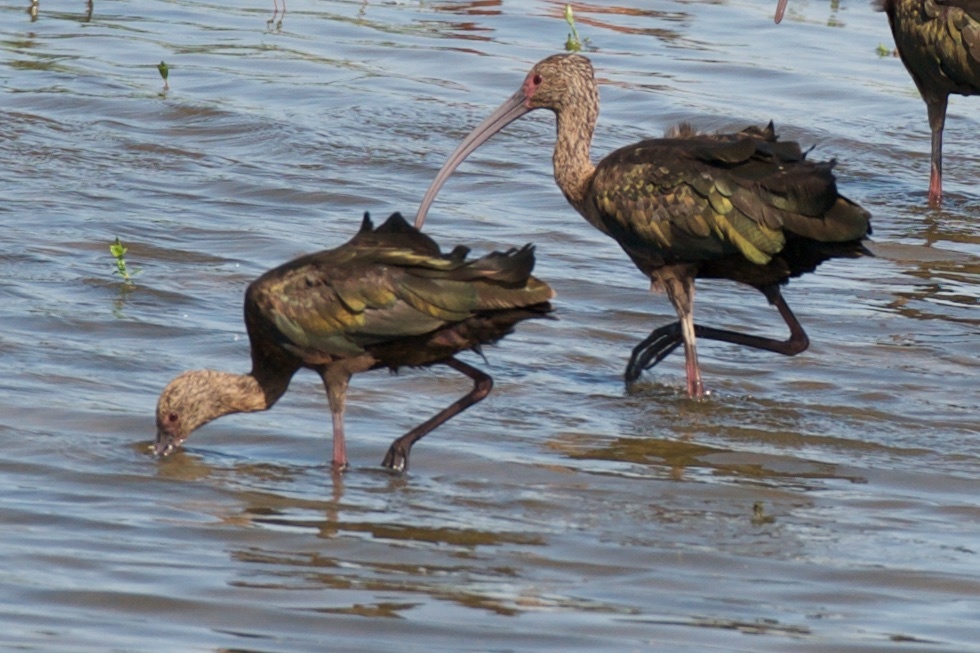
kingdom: Animalia
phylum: Chordata
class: Aves
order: Pelecaniformes
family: Threskiornithidae
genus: Plegadis
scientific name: Plegadis chihi
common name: White-faced ibis
